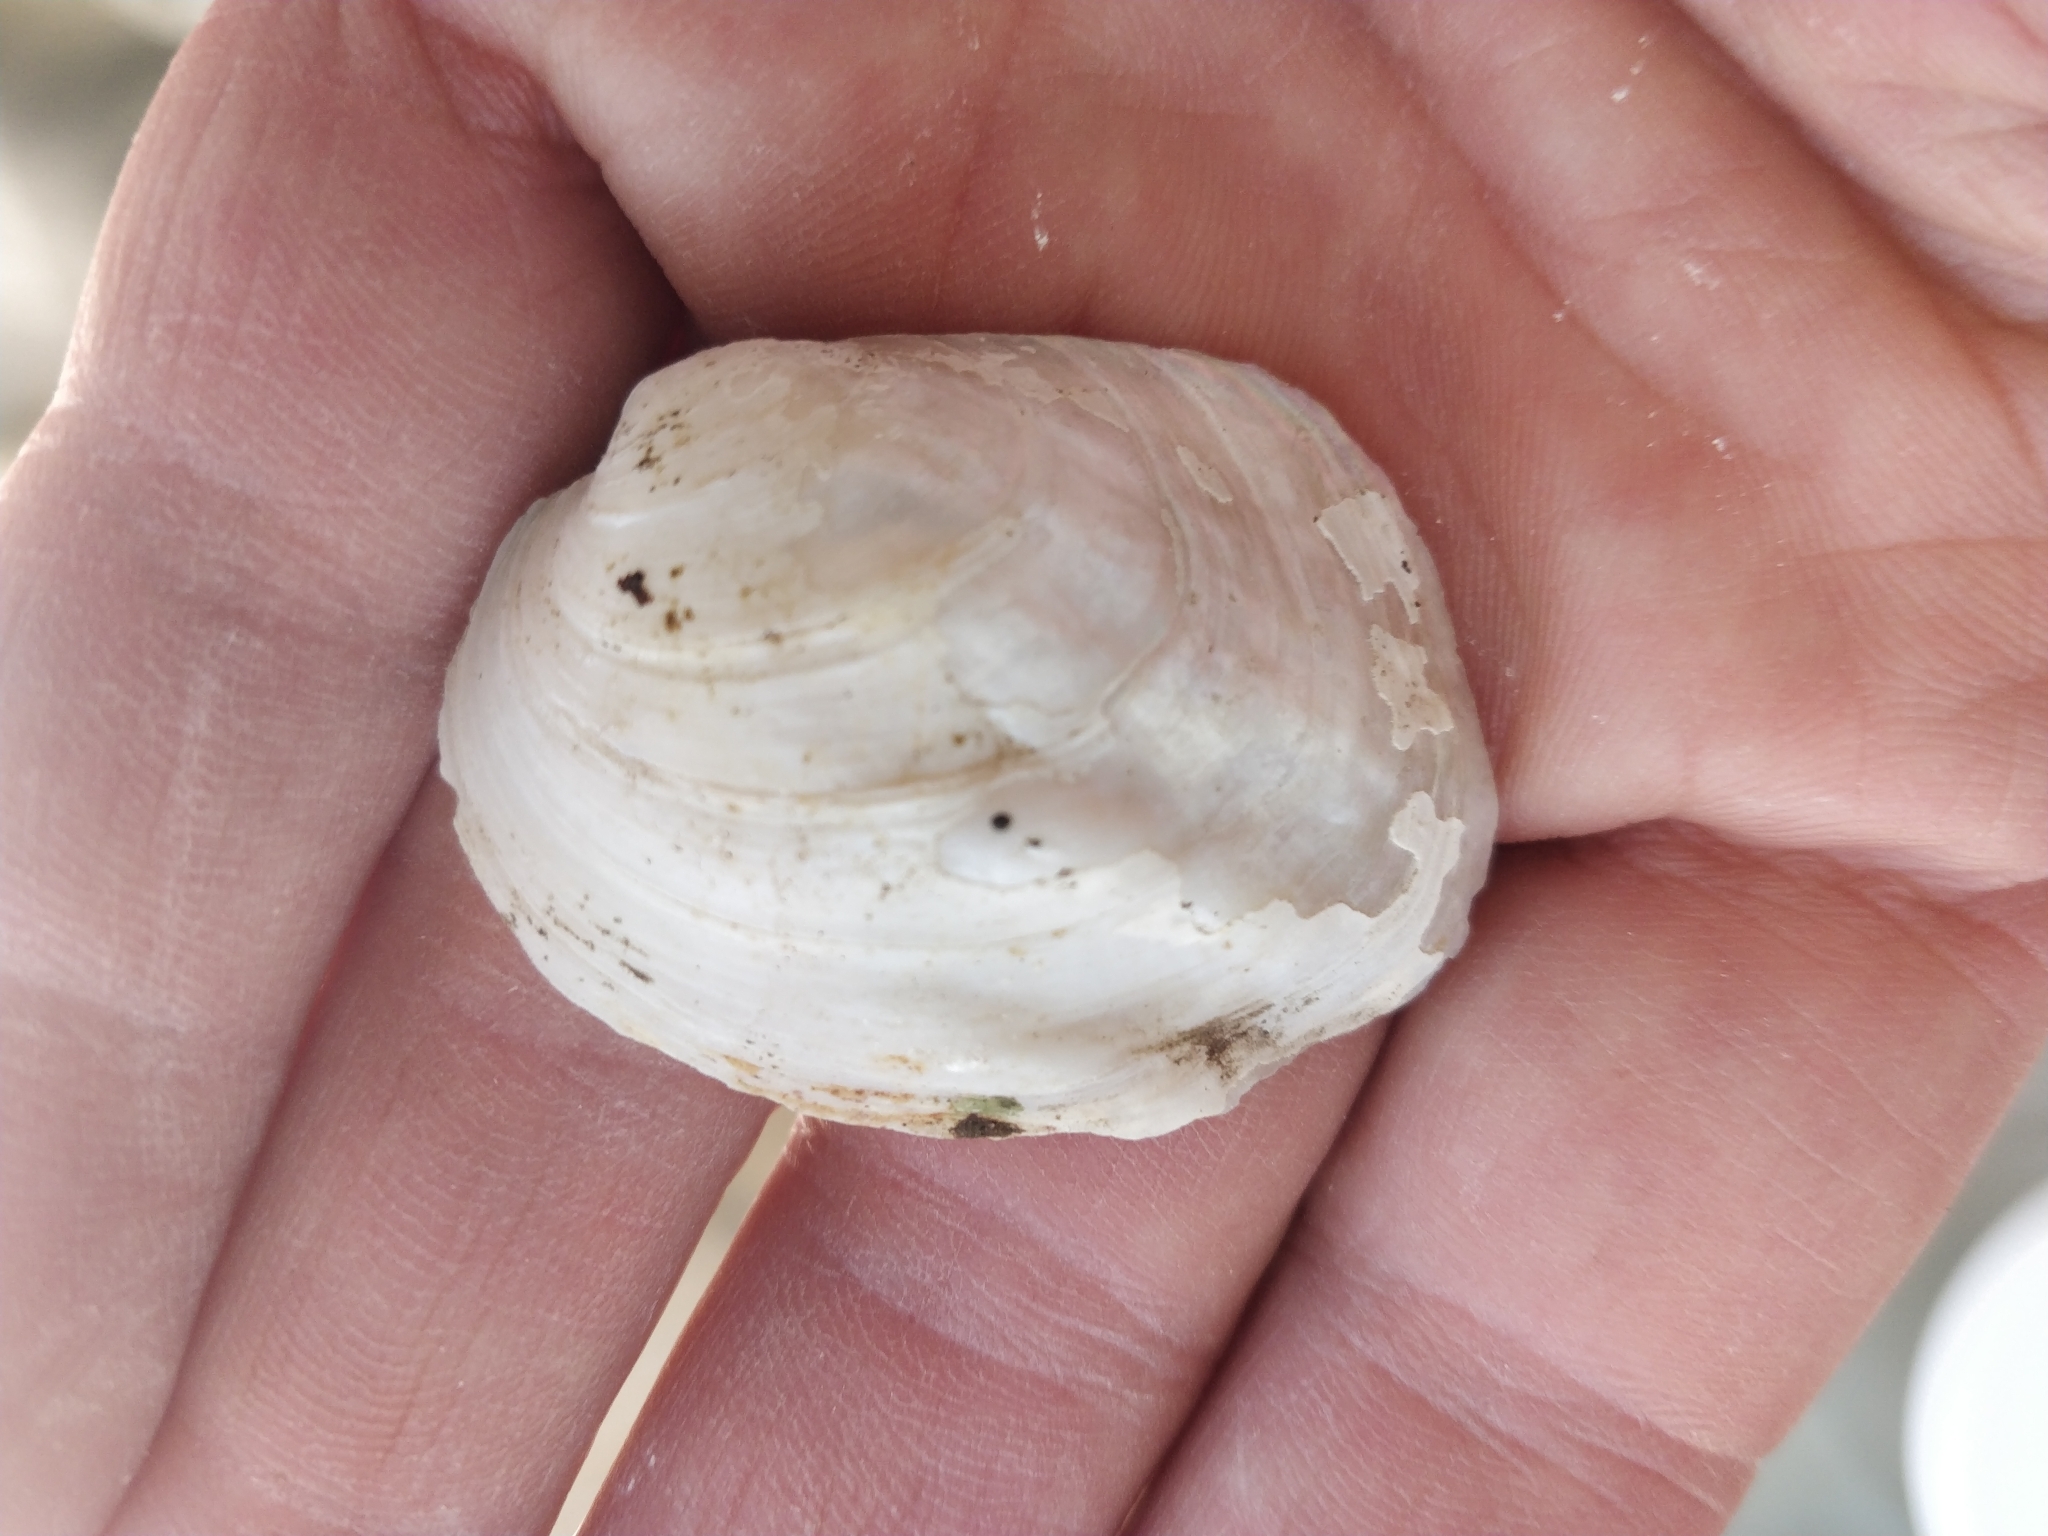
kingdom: Animalia
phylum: Mollusca
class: Bivalvia
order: Unionida
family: Unionidae
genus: Amblema
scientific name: Amblema plicata
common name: Threeridge
